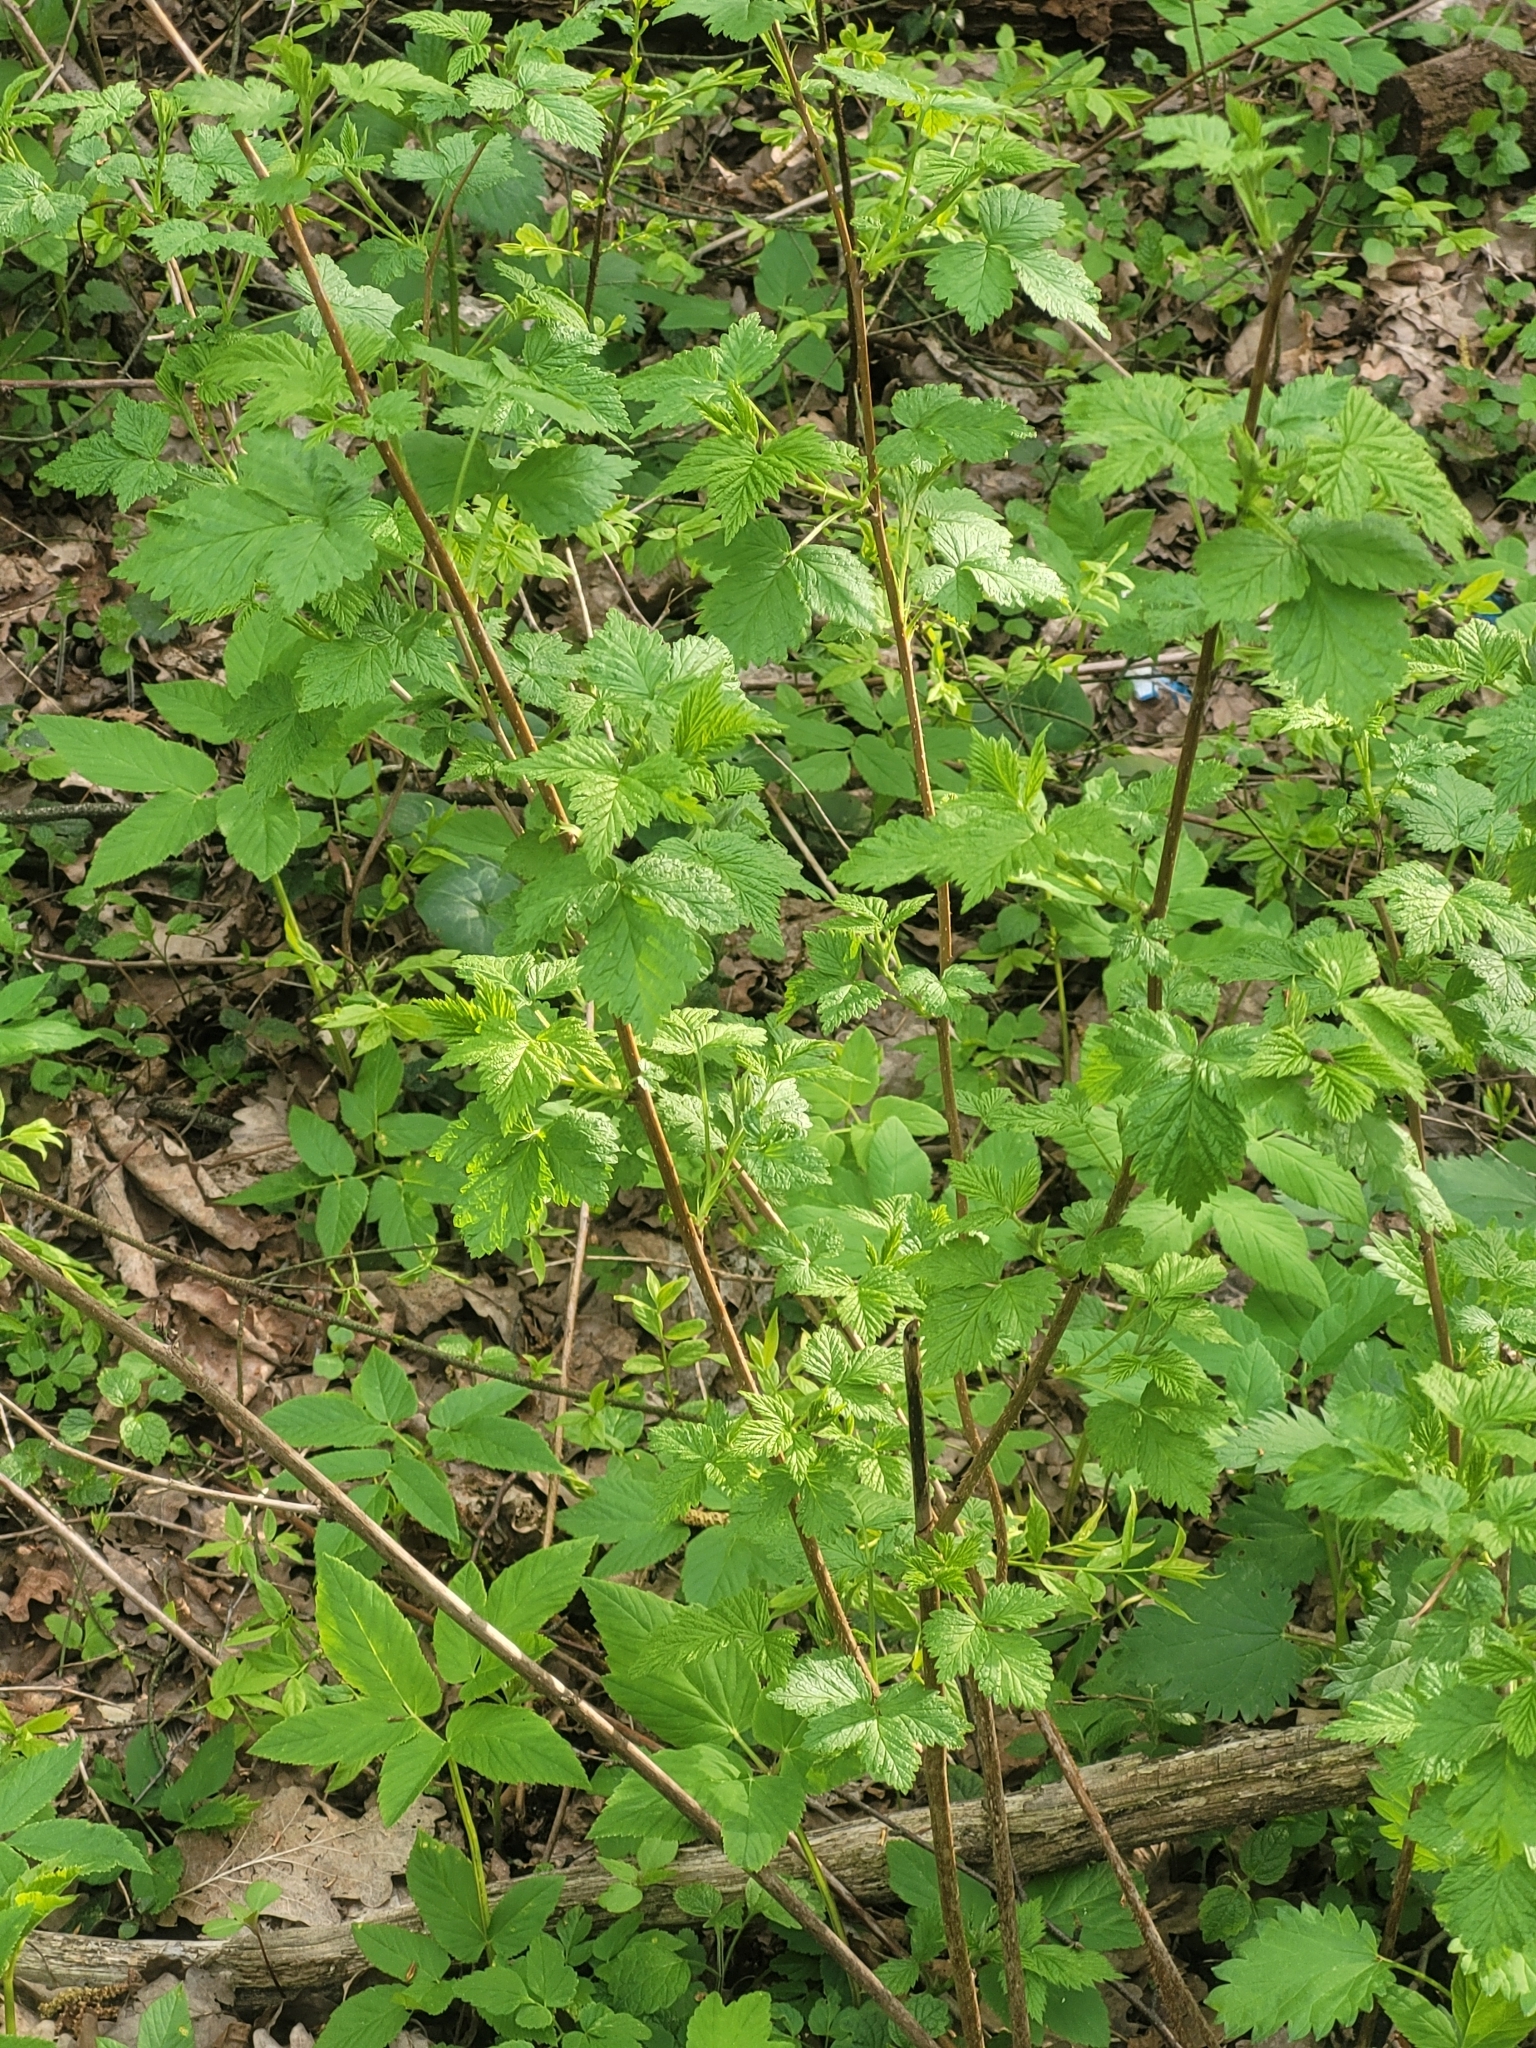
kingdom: Plantae
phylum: Tracheophyta
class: Magnoliopsida
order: Rosales
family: Rosaceae
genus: Rubus
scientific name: Rubus idaeus
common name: Raspberry
